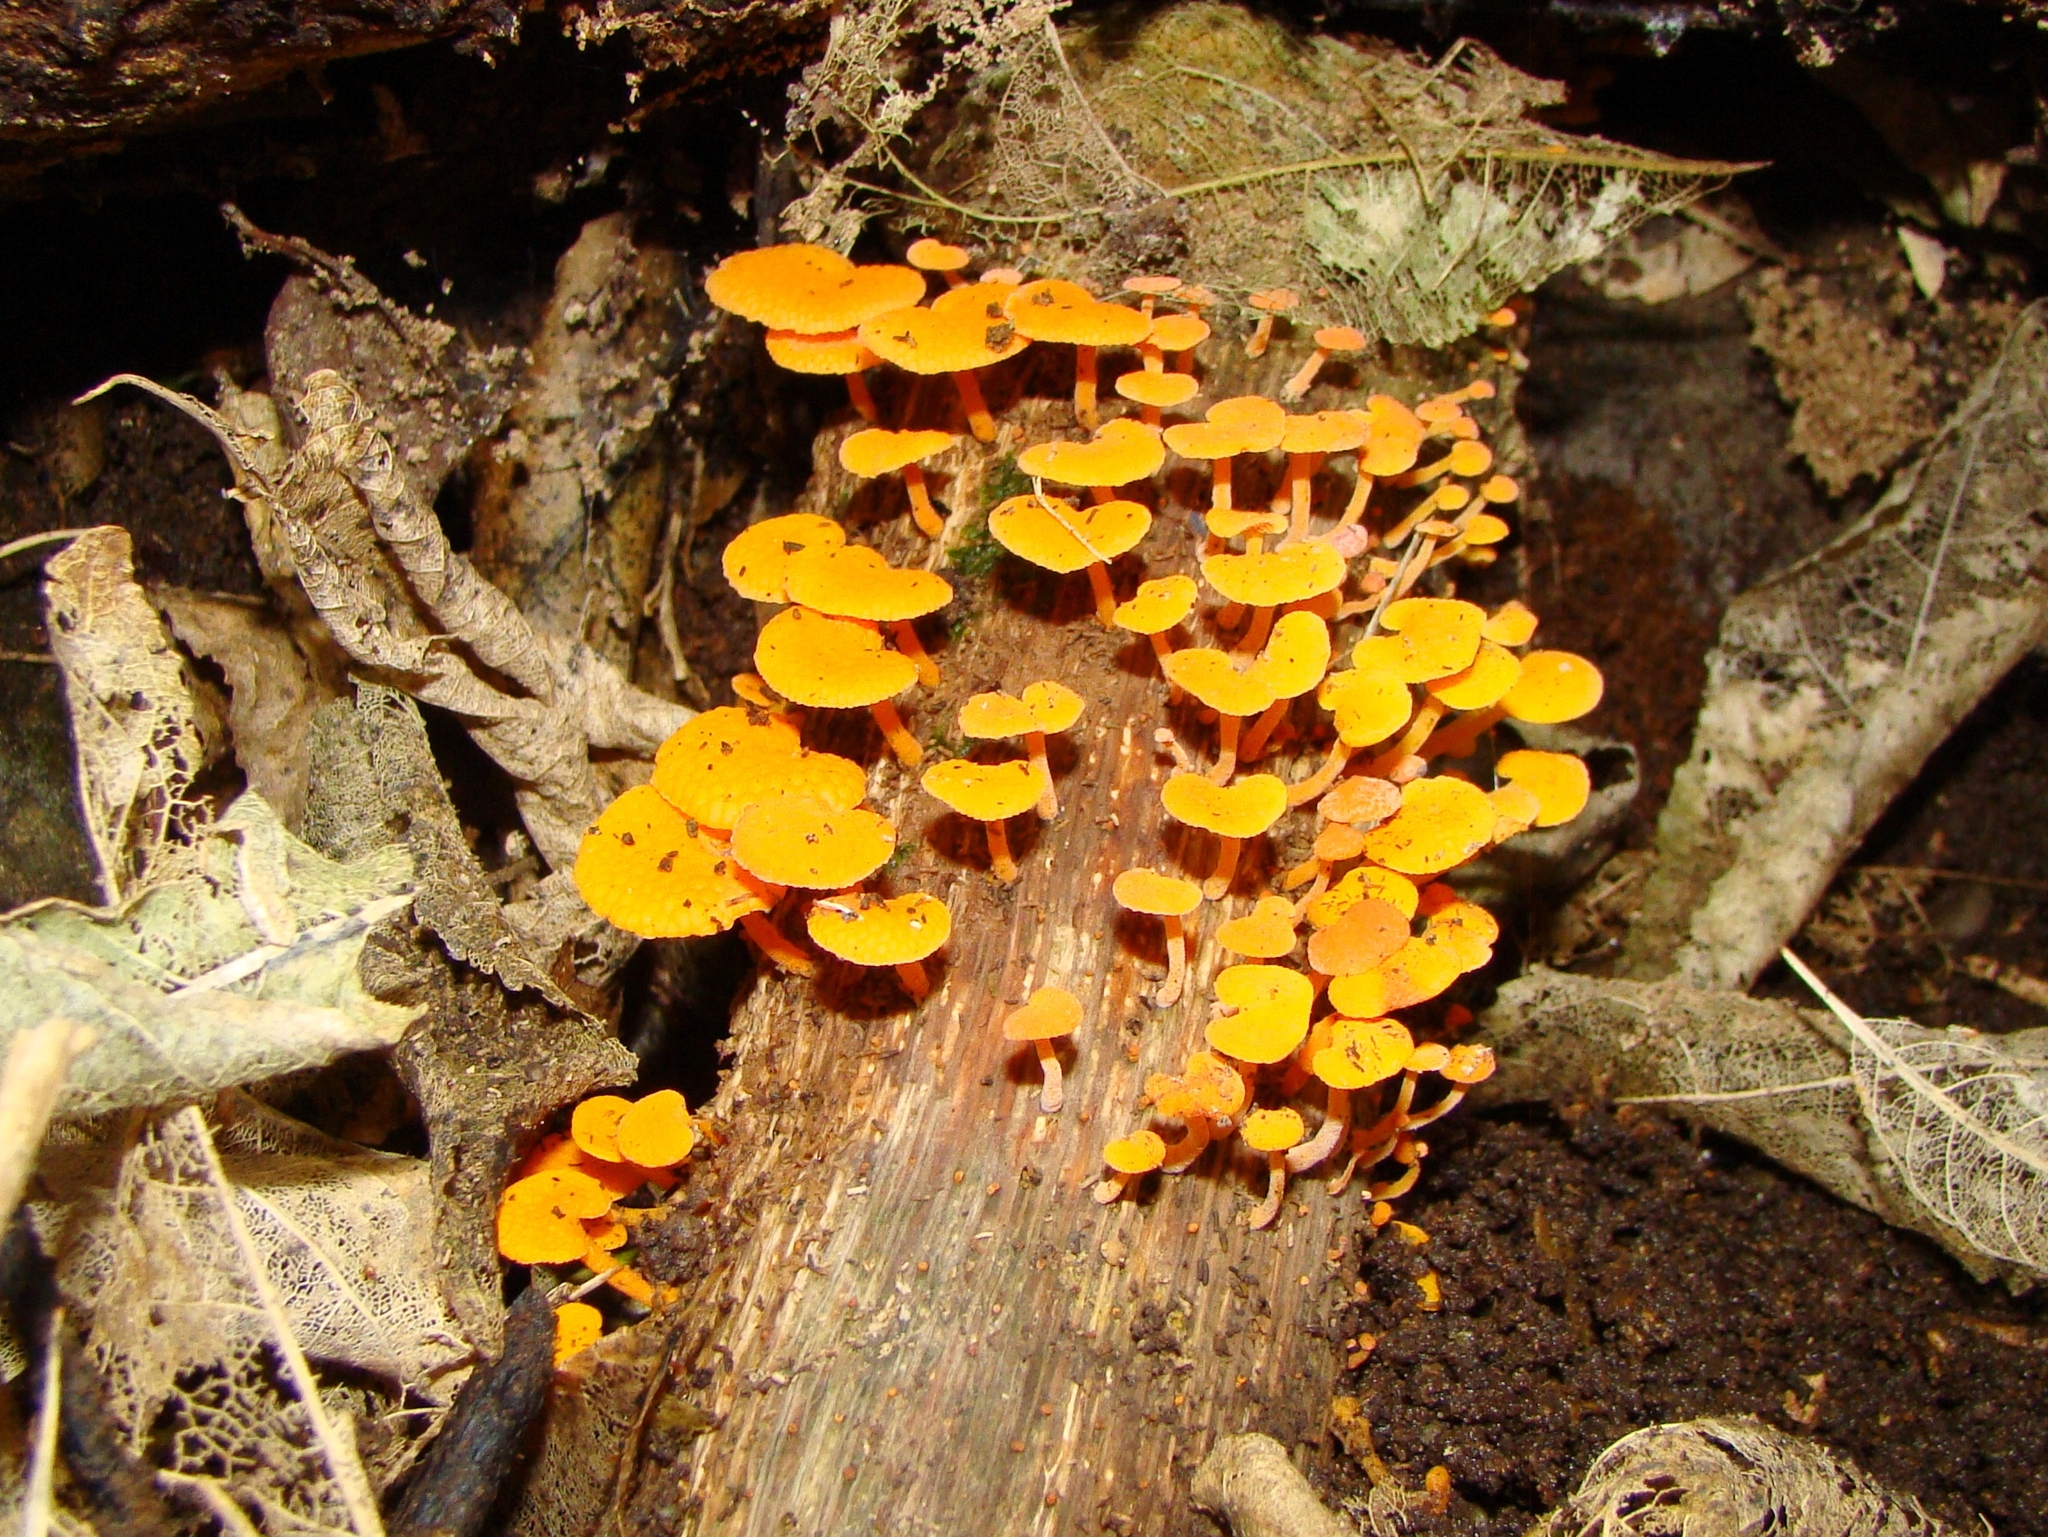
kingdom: Fungi
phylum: Basidiomycota
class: Agaricomycetes
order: Agaricales
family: Mycenaceae
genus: Favolaschia
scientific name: Favolaschia claudopus
